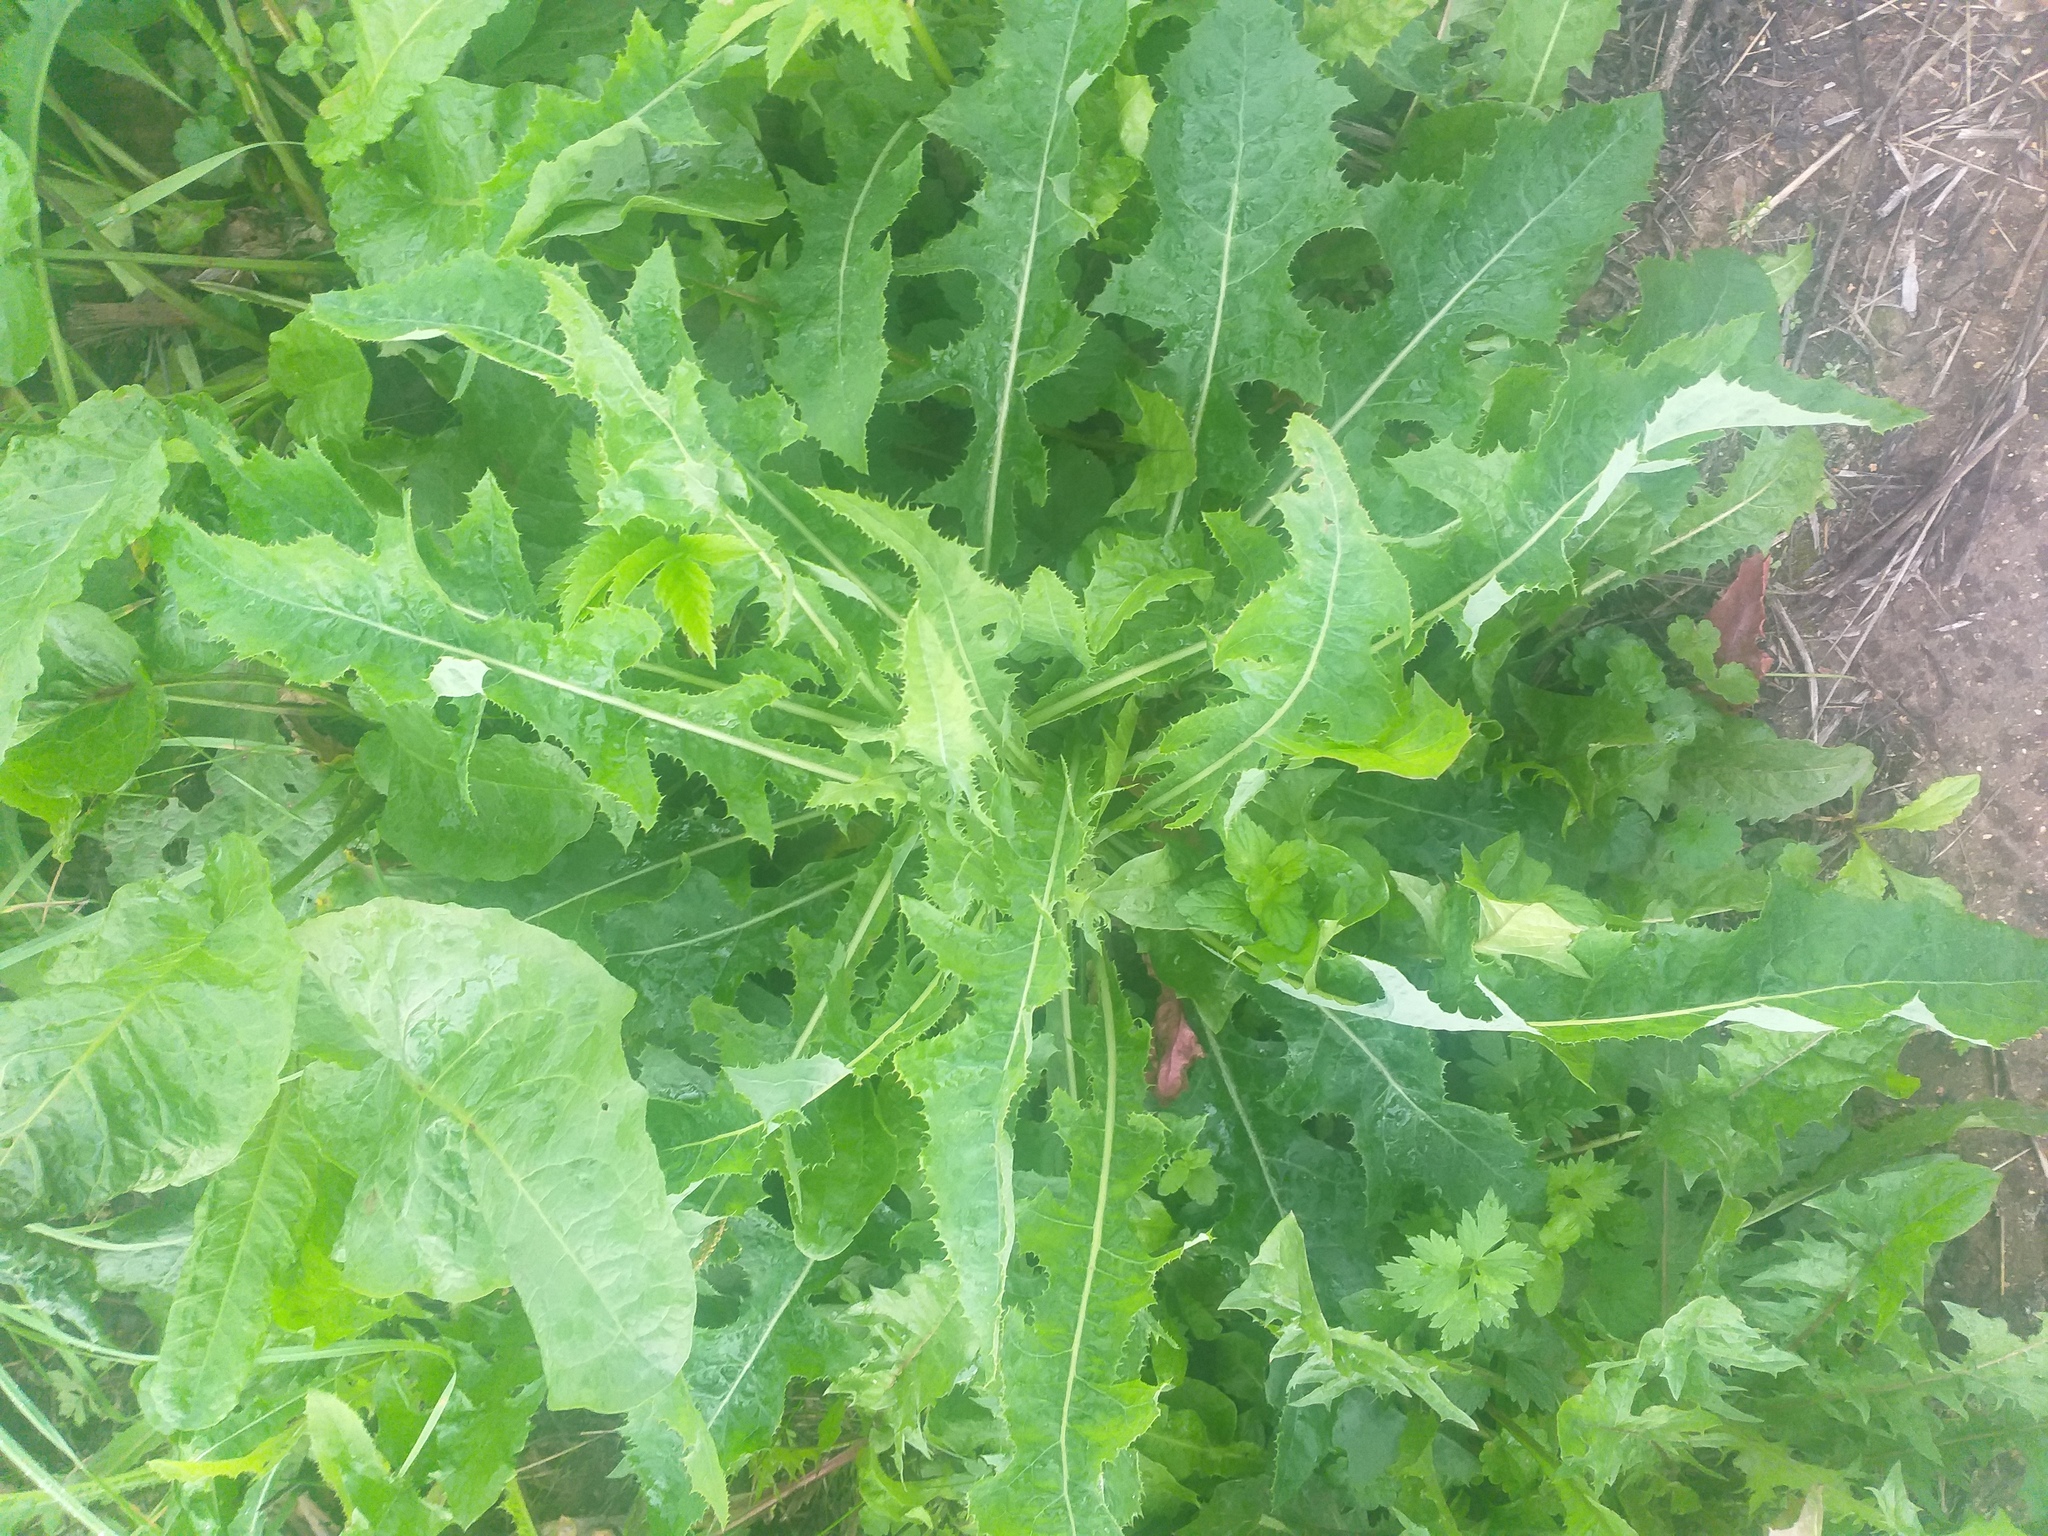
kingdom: Plantae
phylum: Tracheophyta
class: Magnoliopsida
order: Asterales
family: Asteraceae
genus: Sonchus
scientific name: Sonchus arvensis
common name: Perennial sow-thistle
